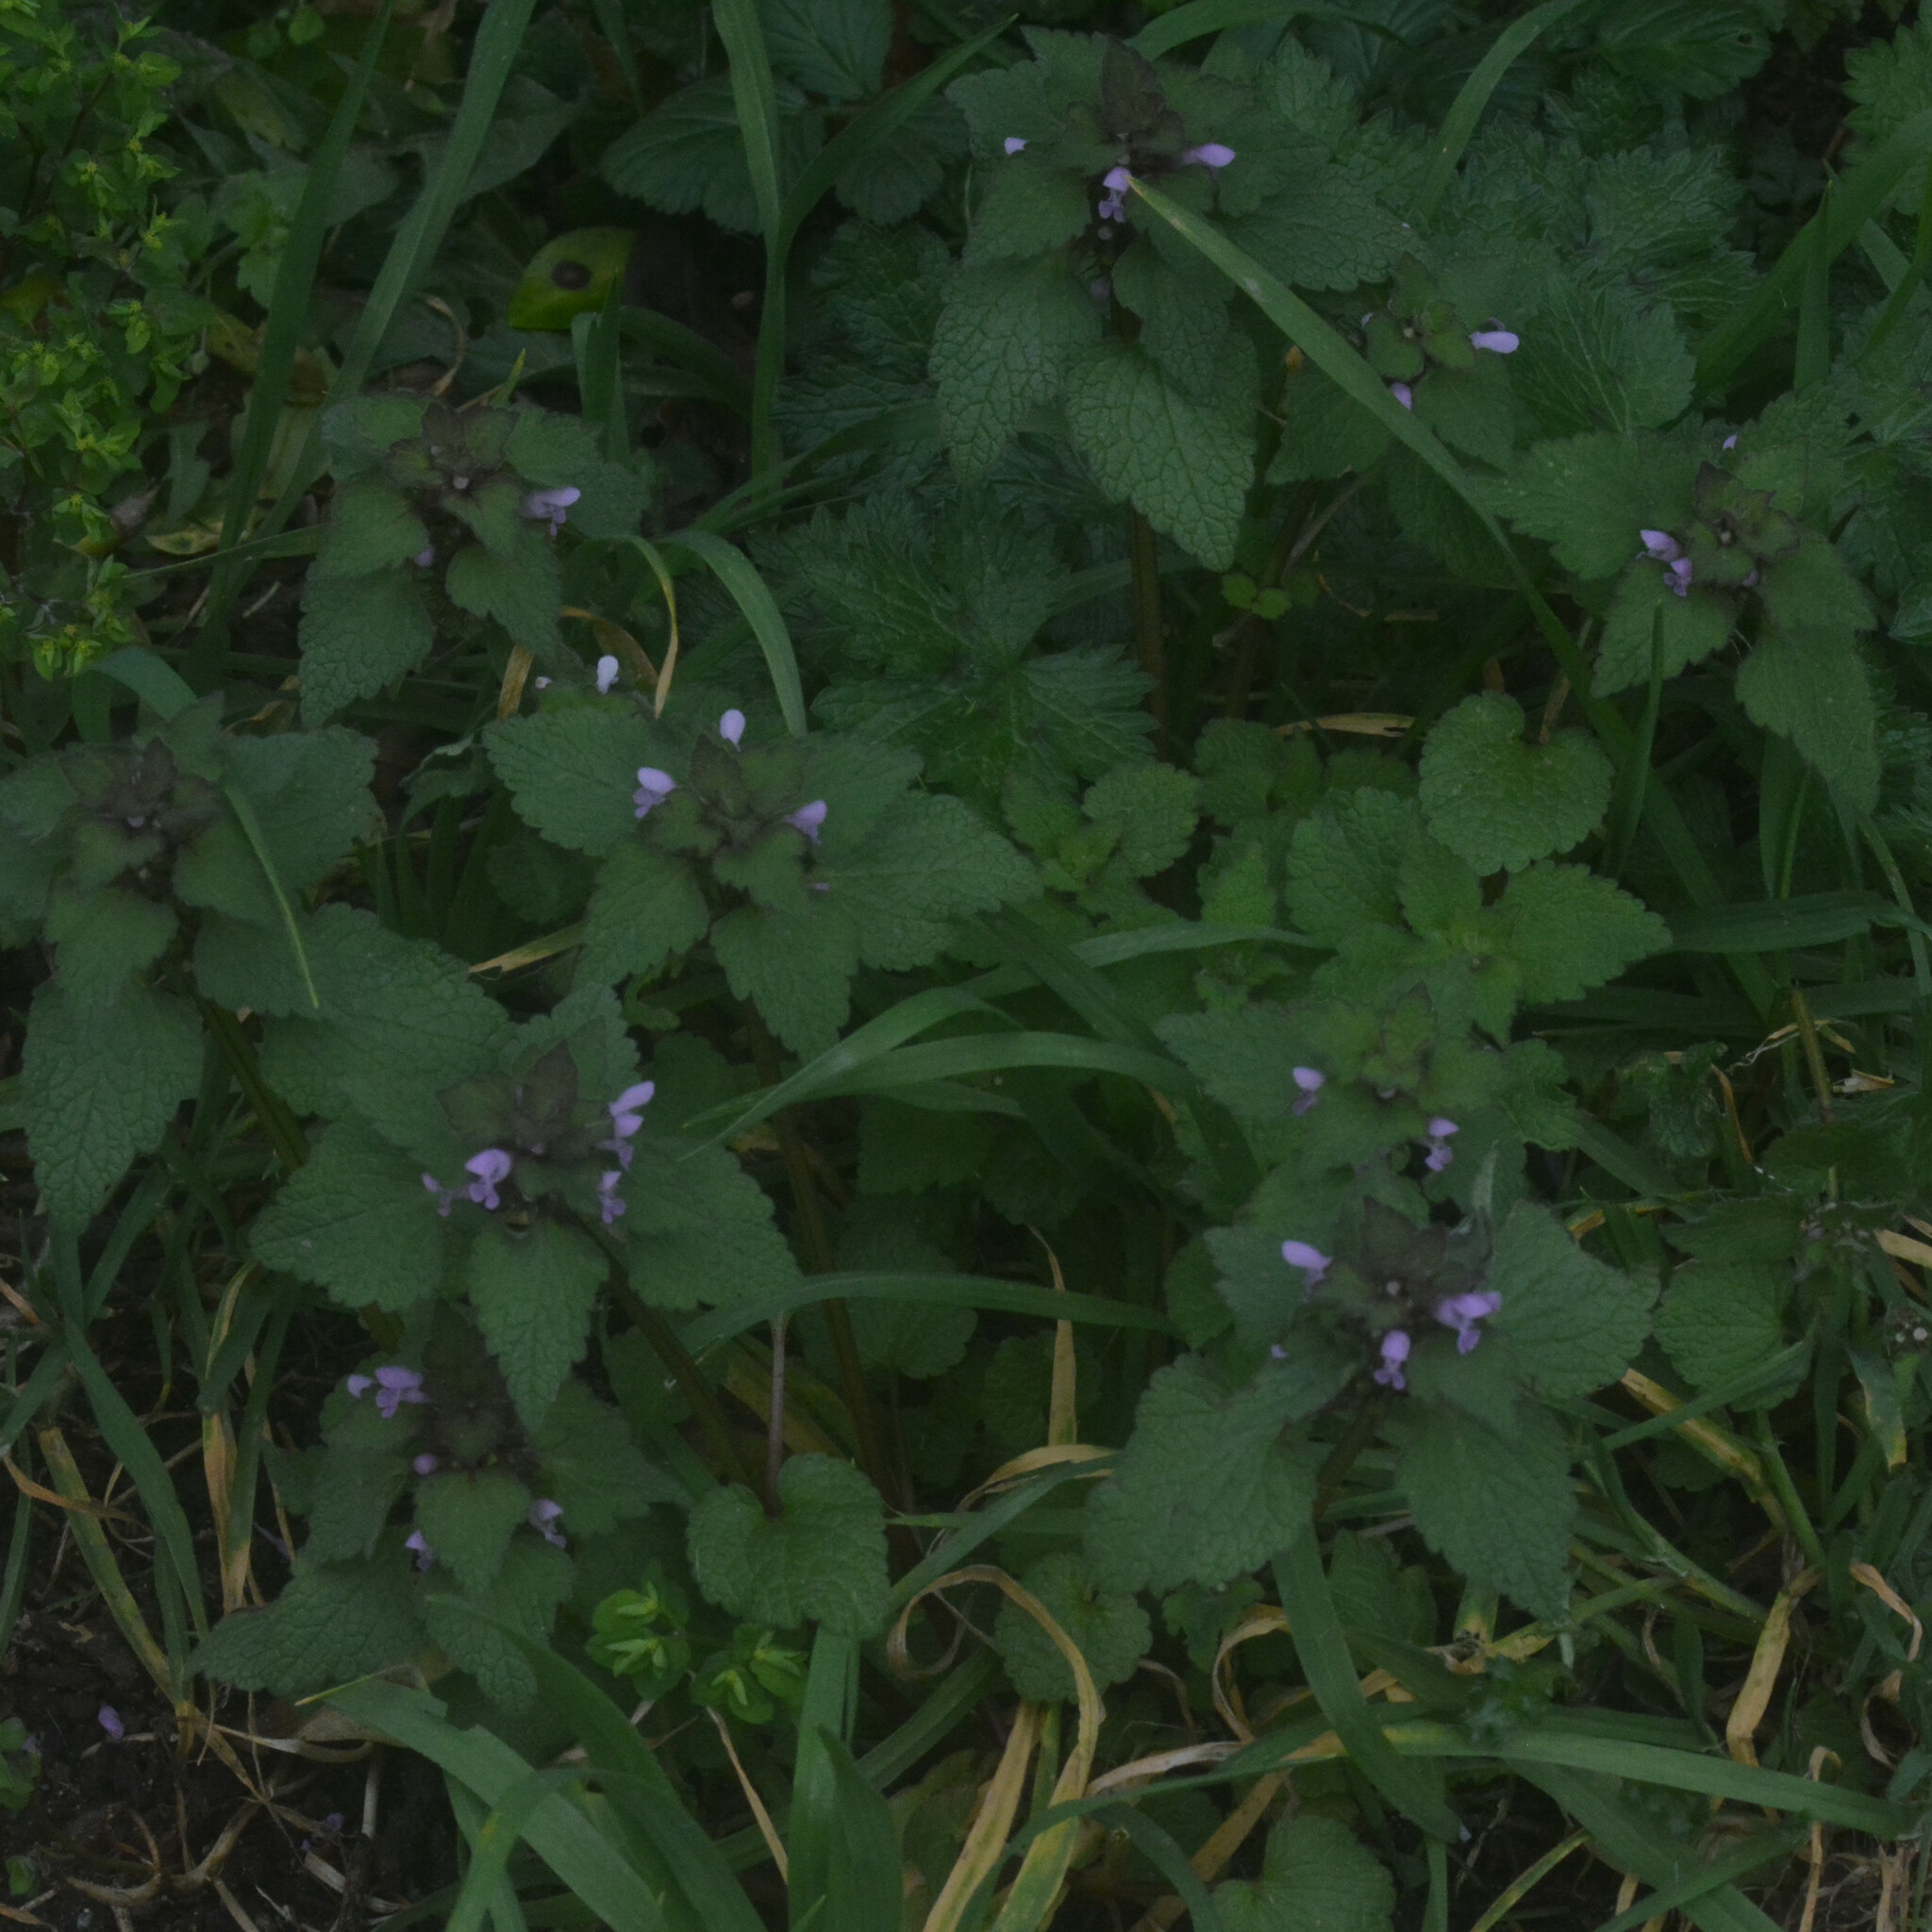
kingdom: Plantae
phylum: Tracheophyta
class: Magnoliopsida
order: Lamiales
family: Lamiaceae
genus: Lamium
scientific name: Lamium purpureum
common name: Red dead-nettle
